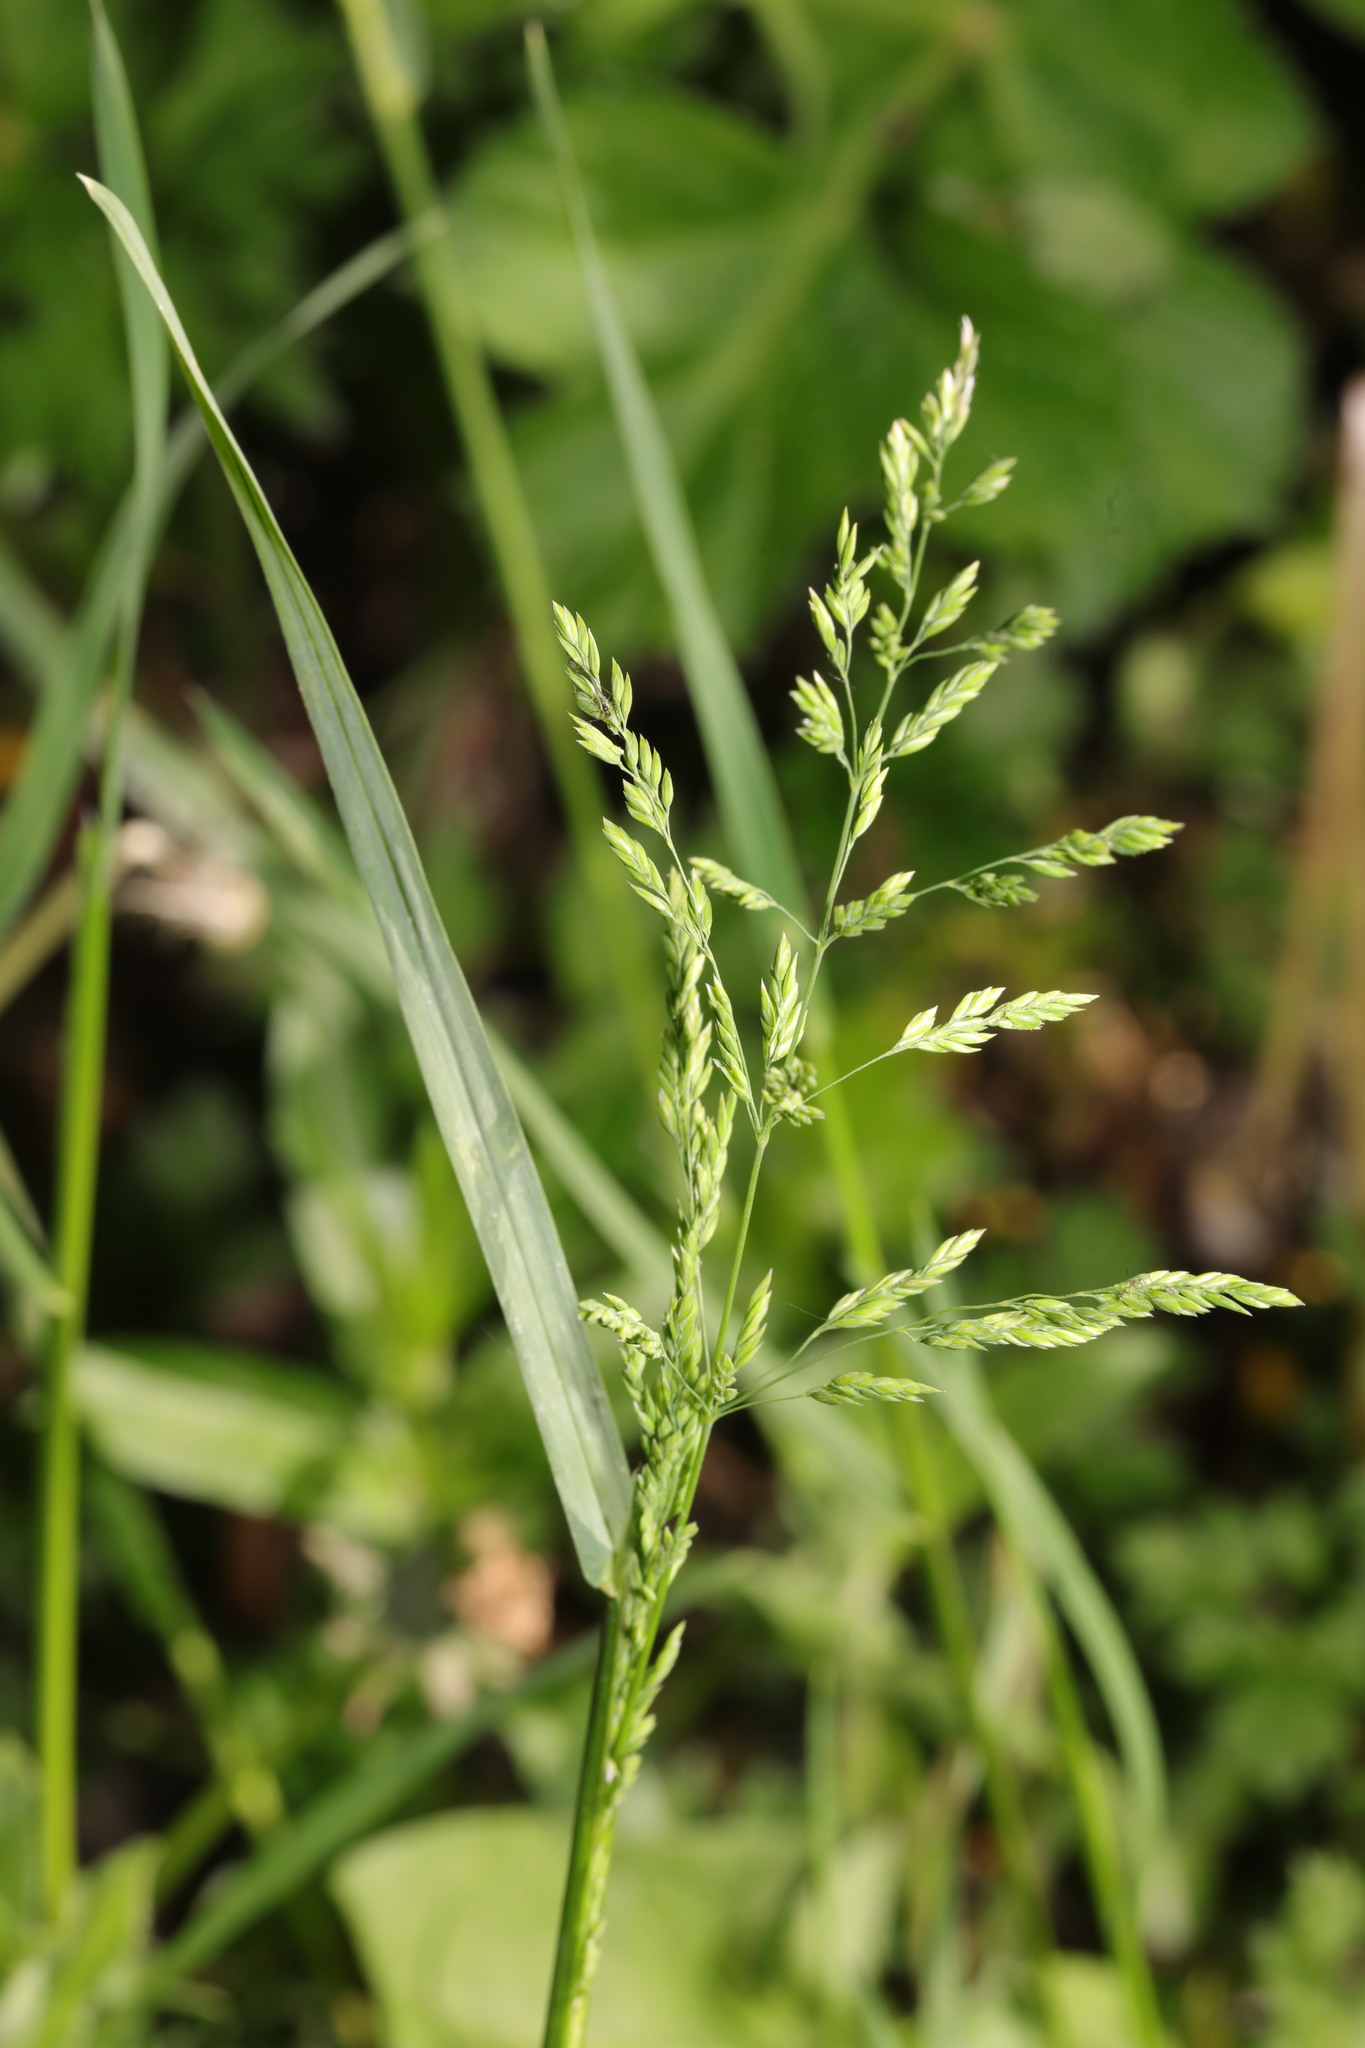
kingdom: Plantae
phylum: Tracheophyta
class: Liliopsida
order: Poales
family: Poaceae
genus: Poa
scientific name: Poa annua
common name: Annual bluegrass
